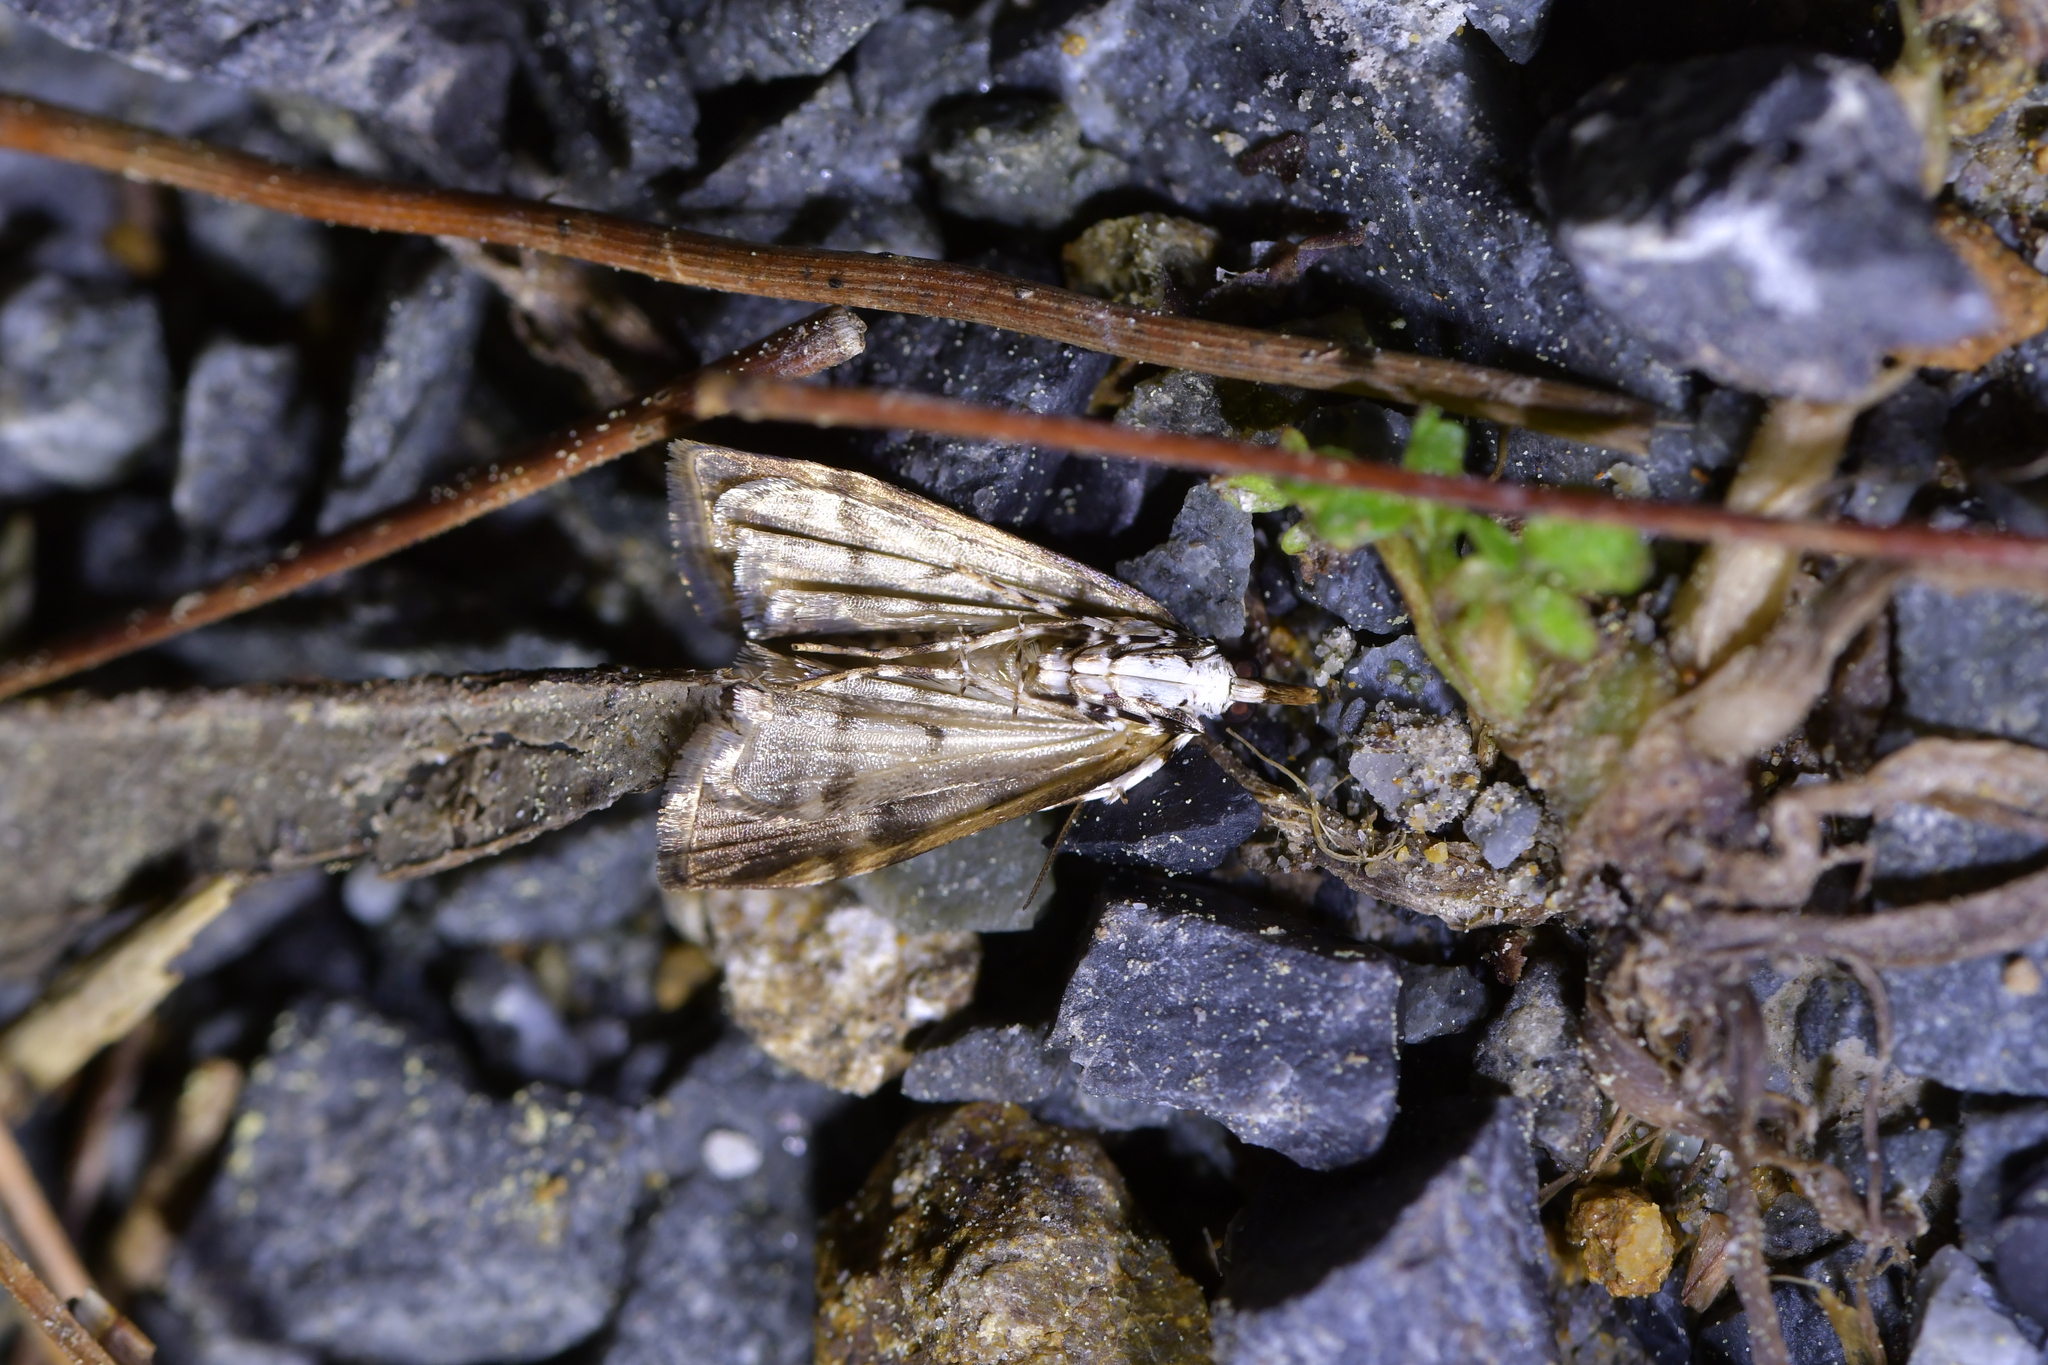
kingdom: Animalia
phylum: Arthropoda
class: Insecta
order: Lepidoptera
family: Crambidae
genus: Scoparia
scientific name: Scoparia ustimacula
